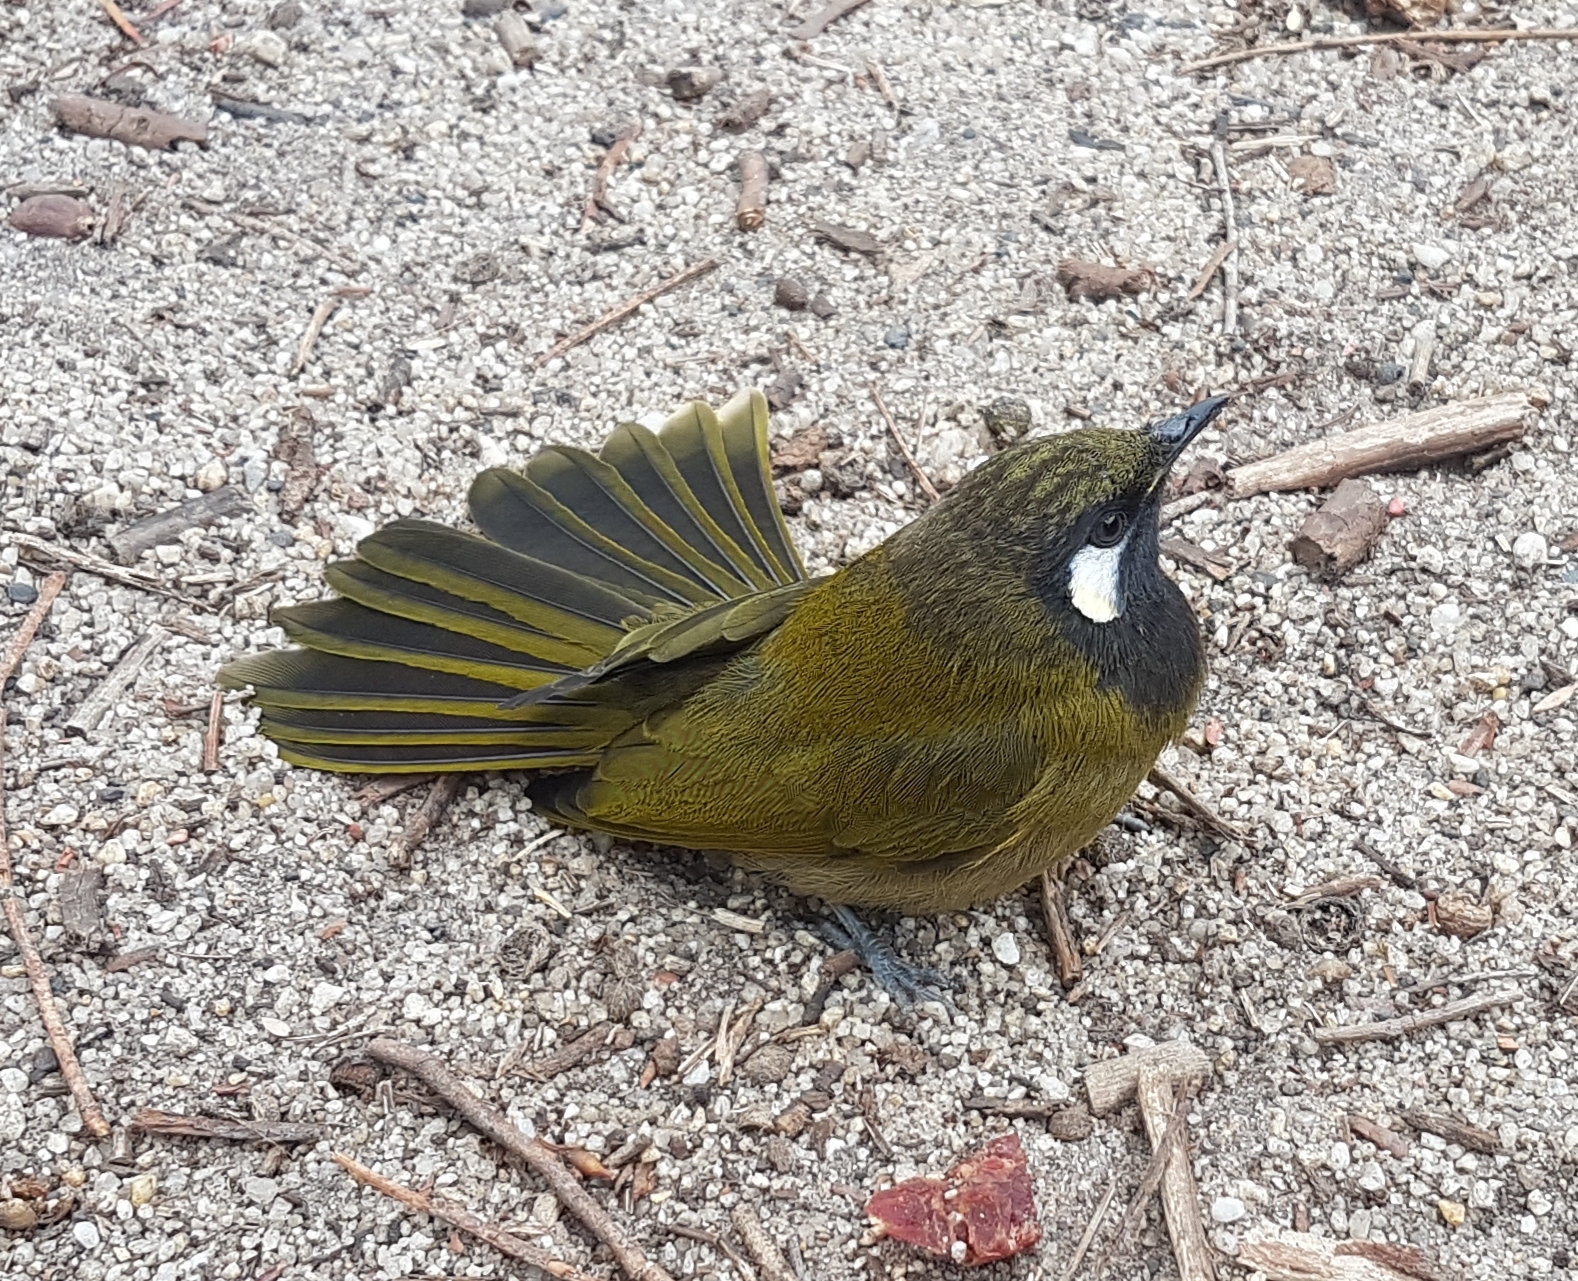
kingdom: Animalia
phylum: Chordata
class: Aves
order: Passeriformes
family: Meliphagidae
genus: Nesoptilotis
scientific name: Nesoptilotis leucotis
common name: White-eared honeyeater
